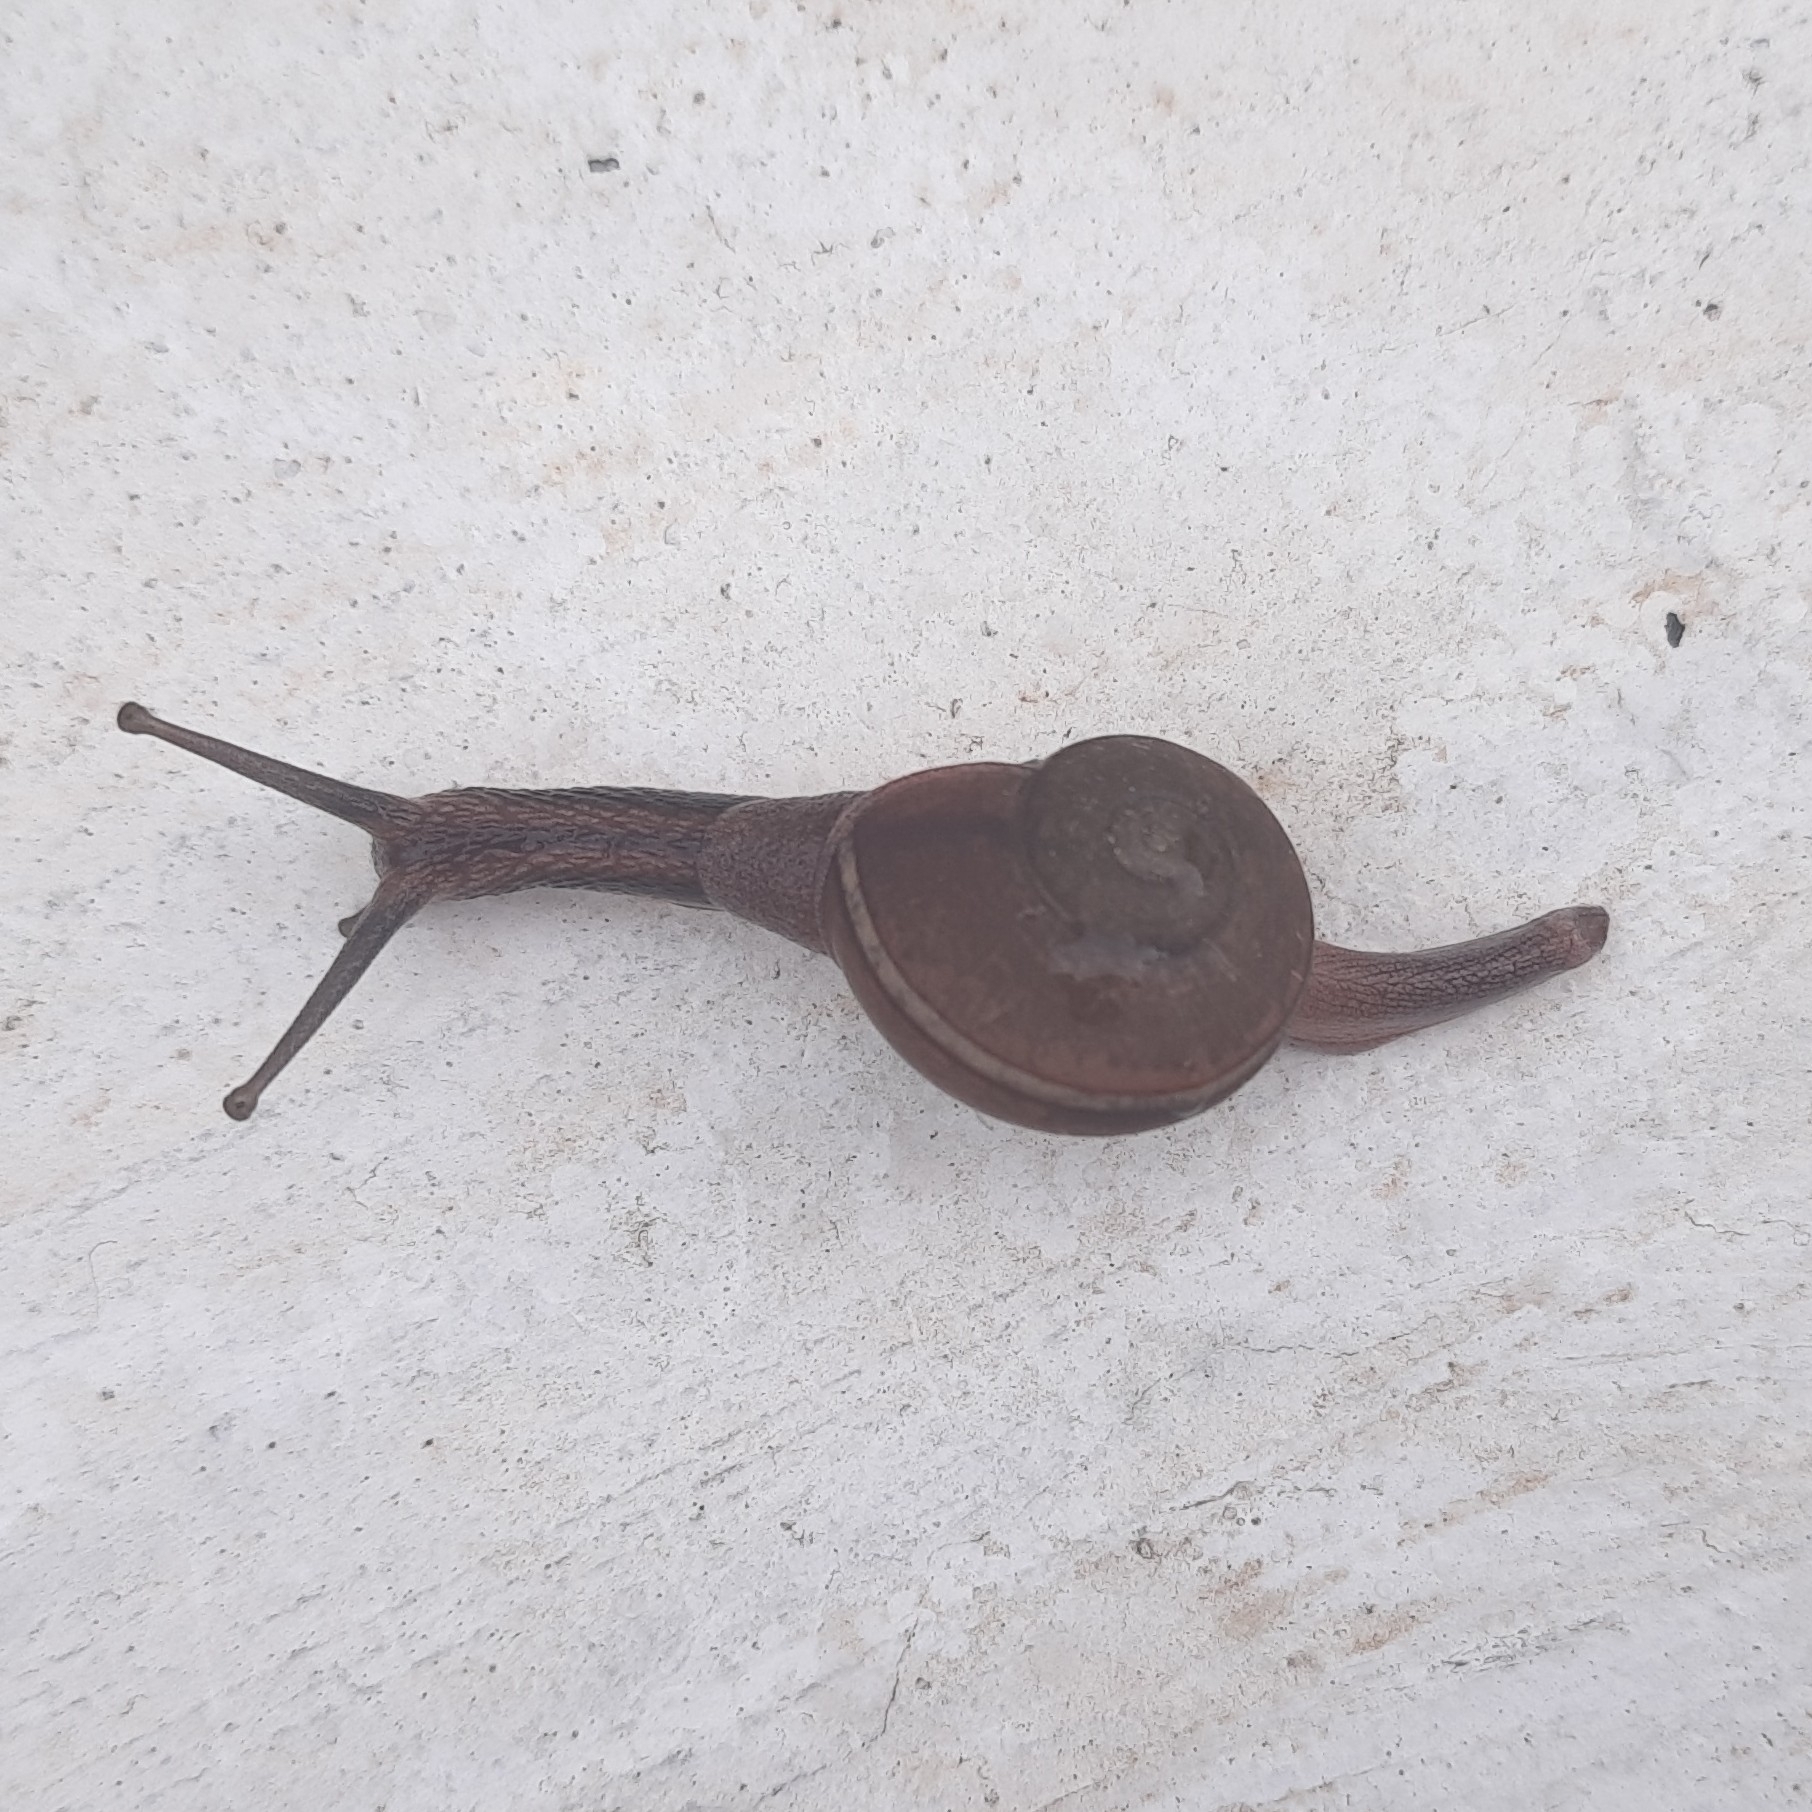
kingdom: Animalia
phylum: Mollusca
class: Gastropoda
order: Stylommatophora
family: Ariophantidae
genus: Ariophanta
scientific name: Ariophanta exilis
